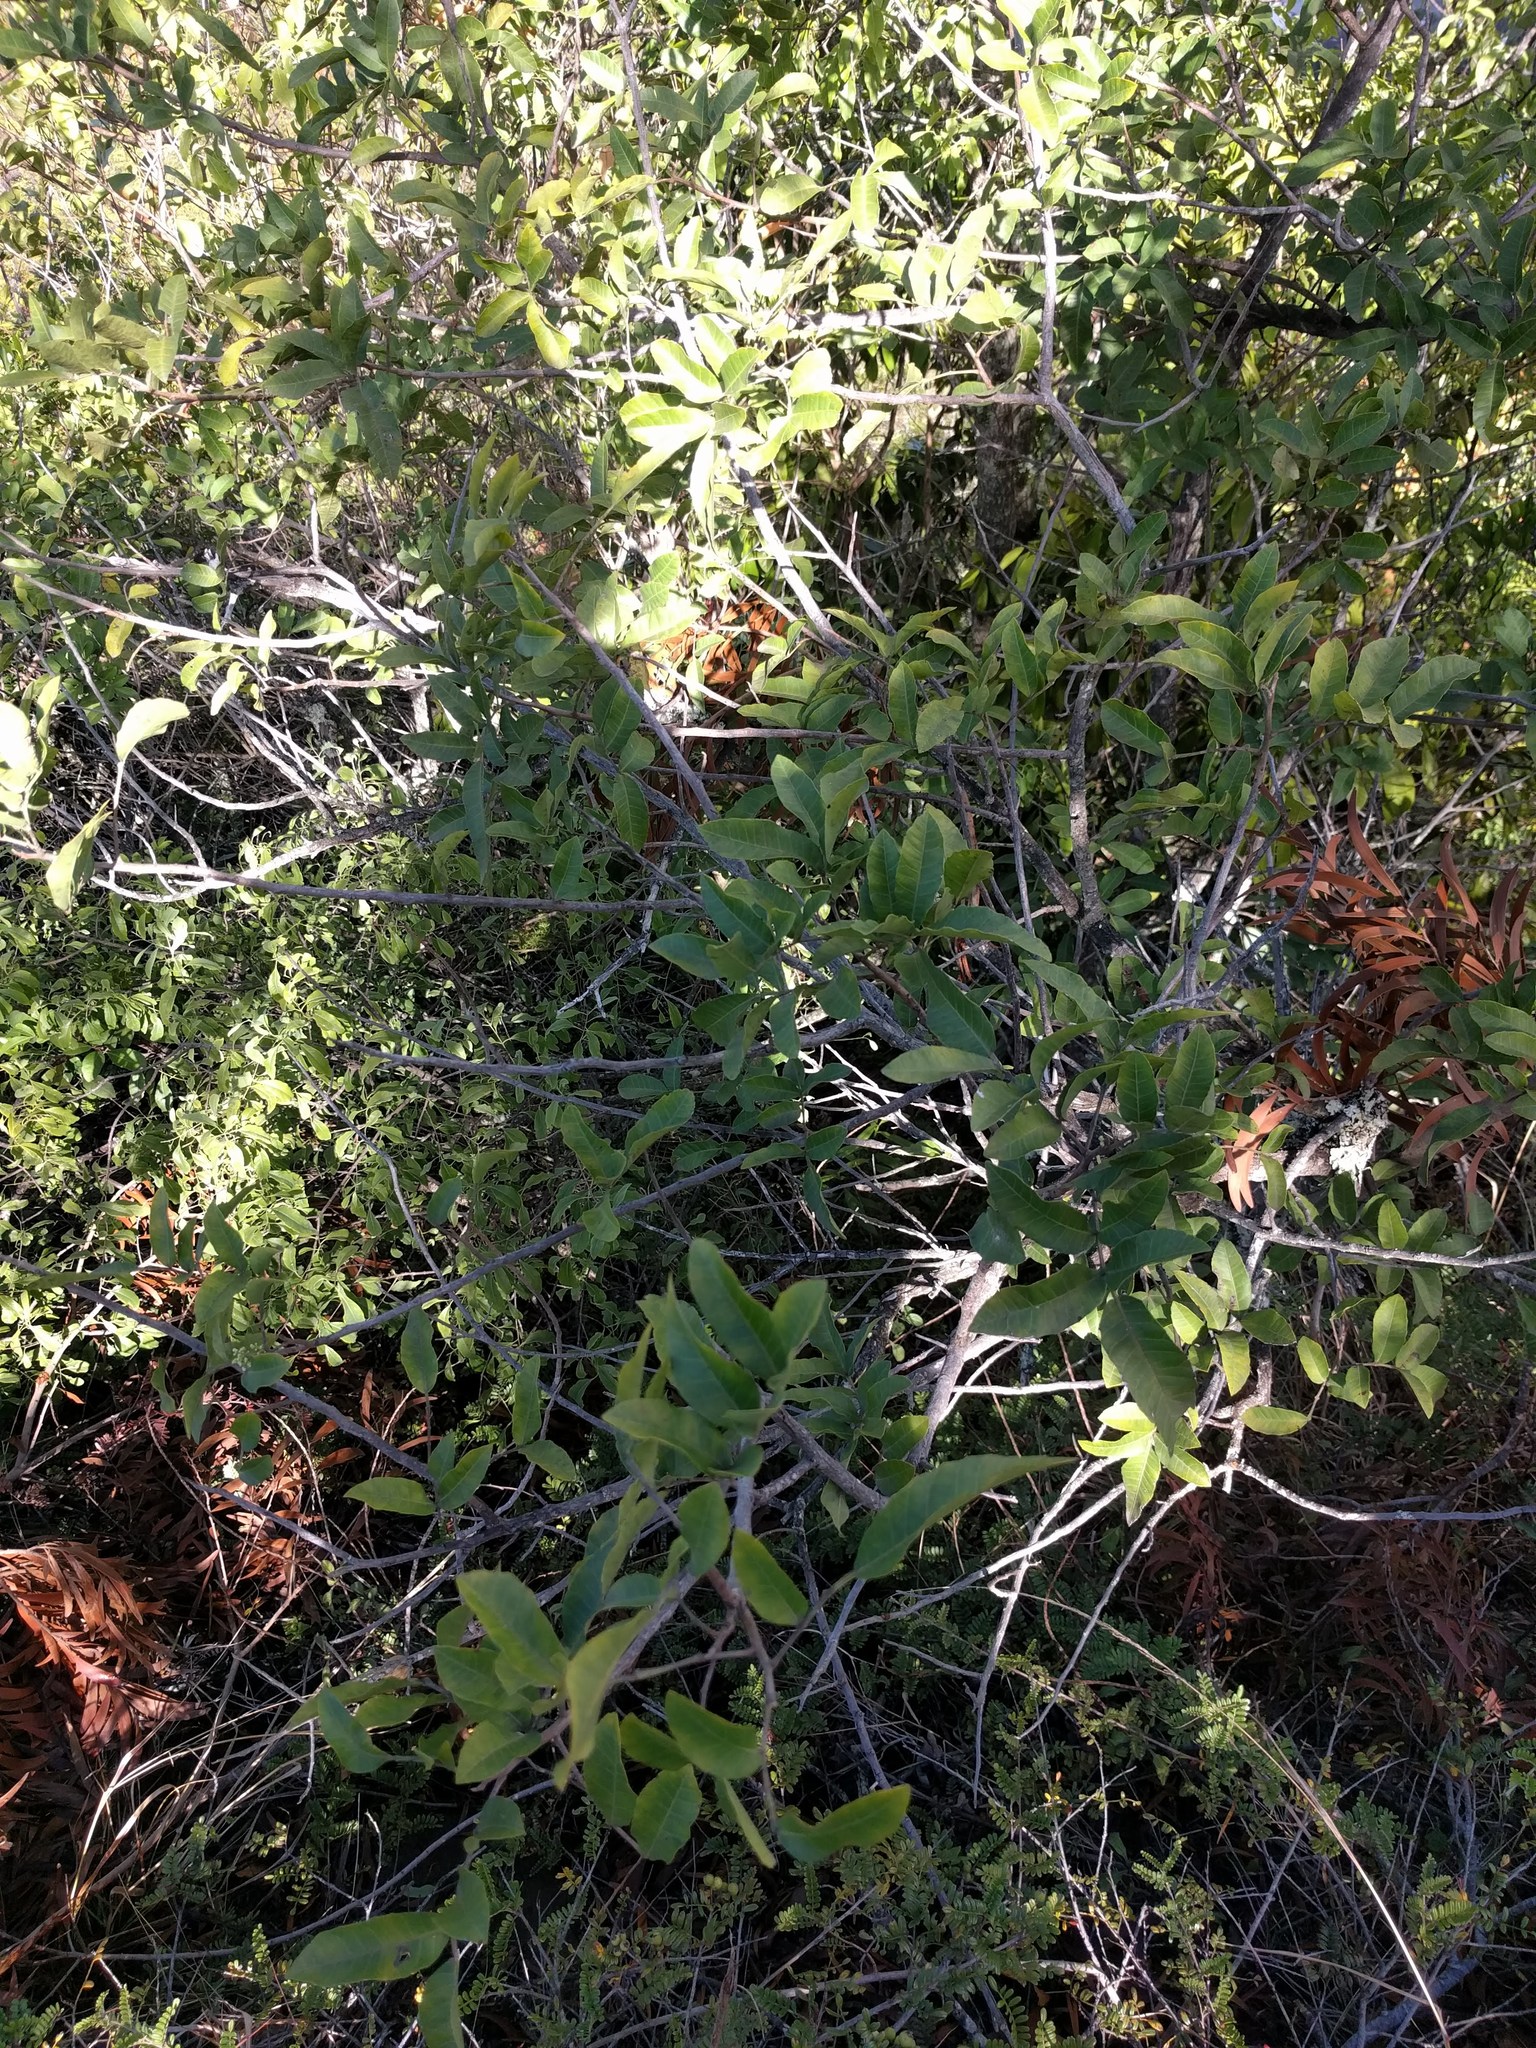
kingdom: Plantae
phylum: Tracheophyta
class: Magnoliopsida
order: Sapindales
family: Anacardiaceae
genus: Schinus
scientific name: Schinus terebinthifolia
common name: Brazilian peppertree
